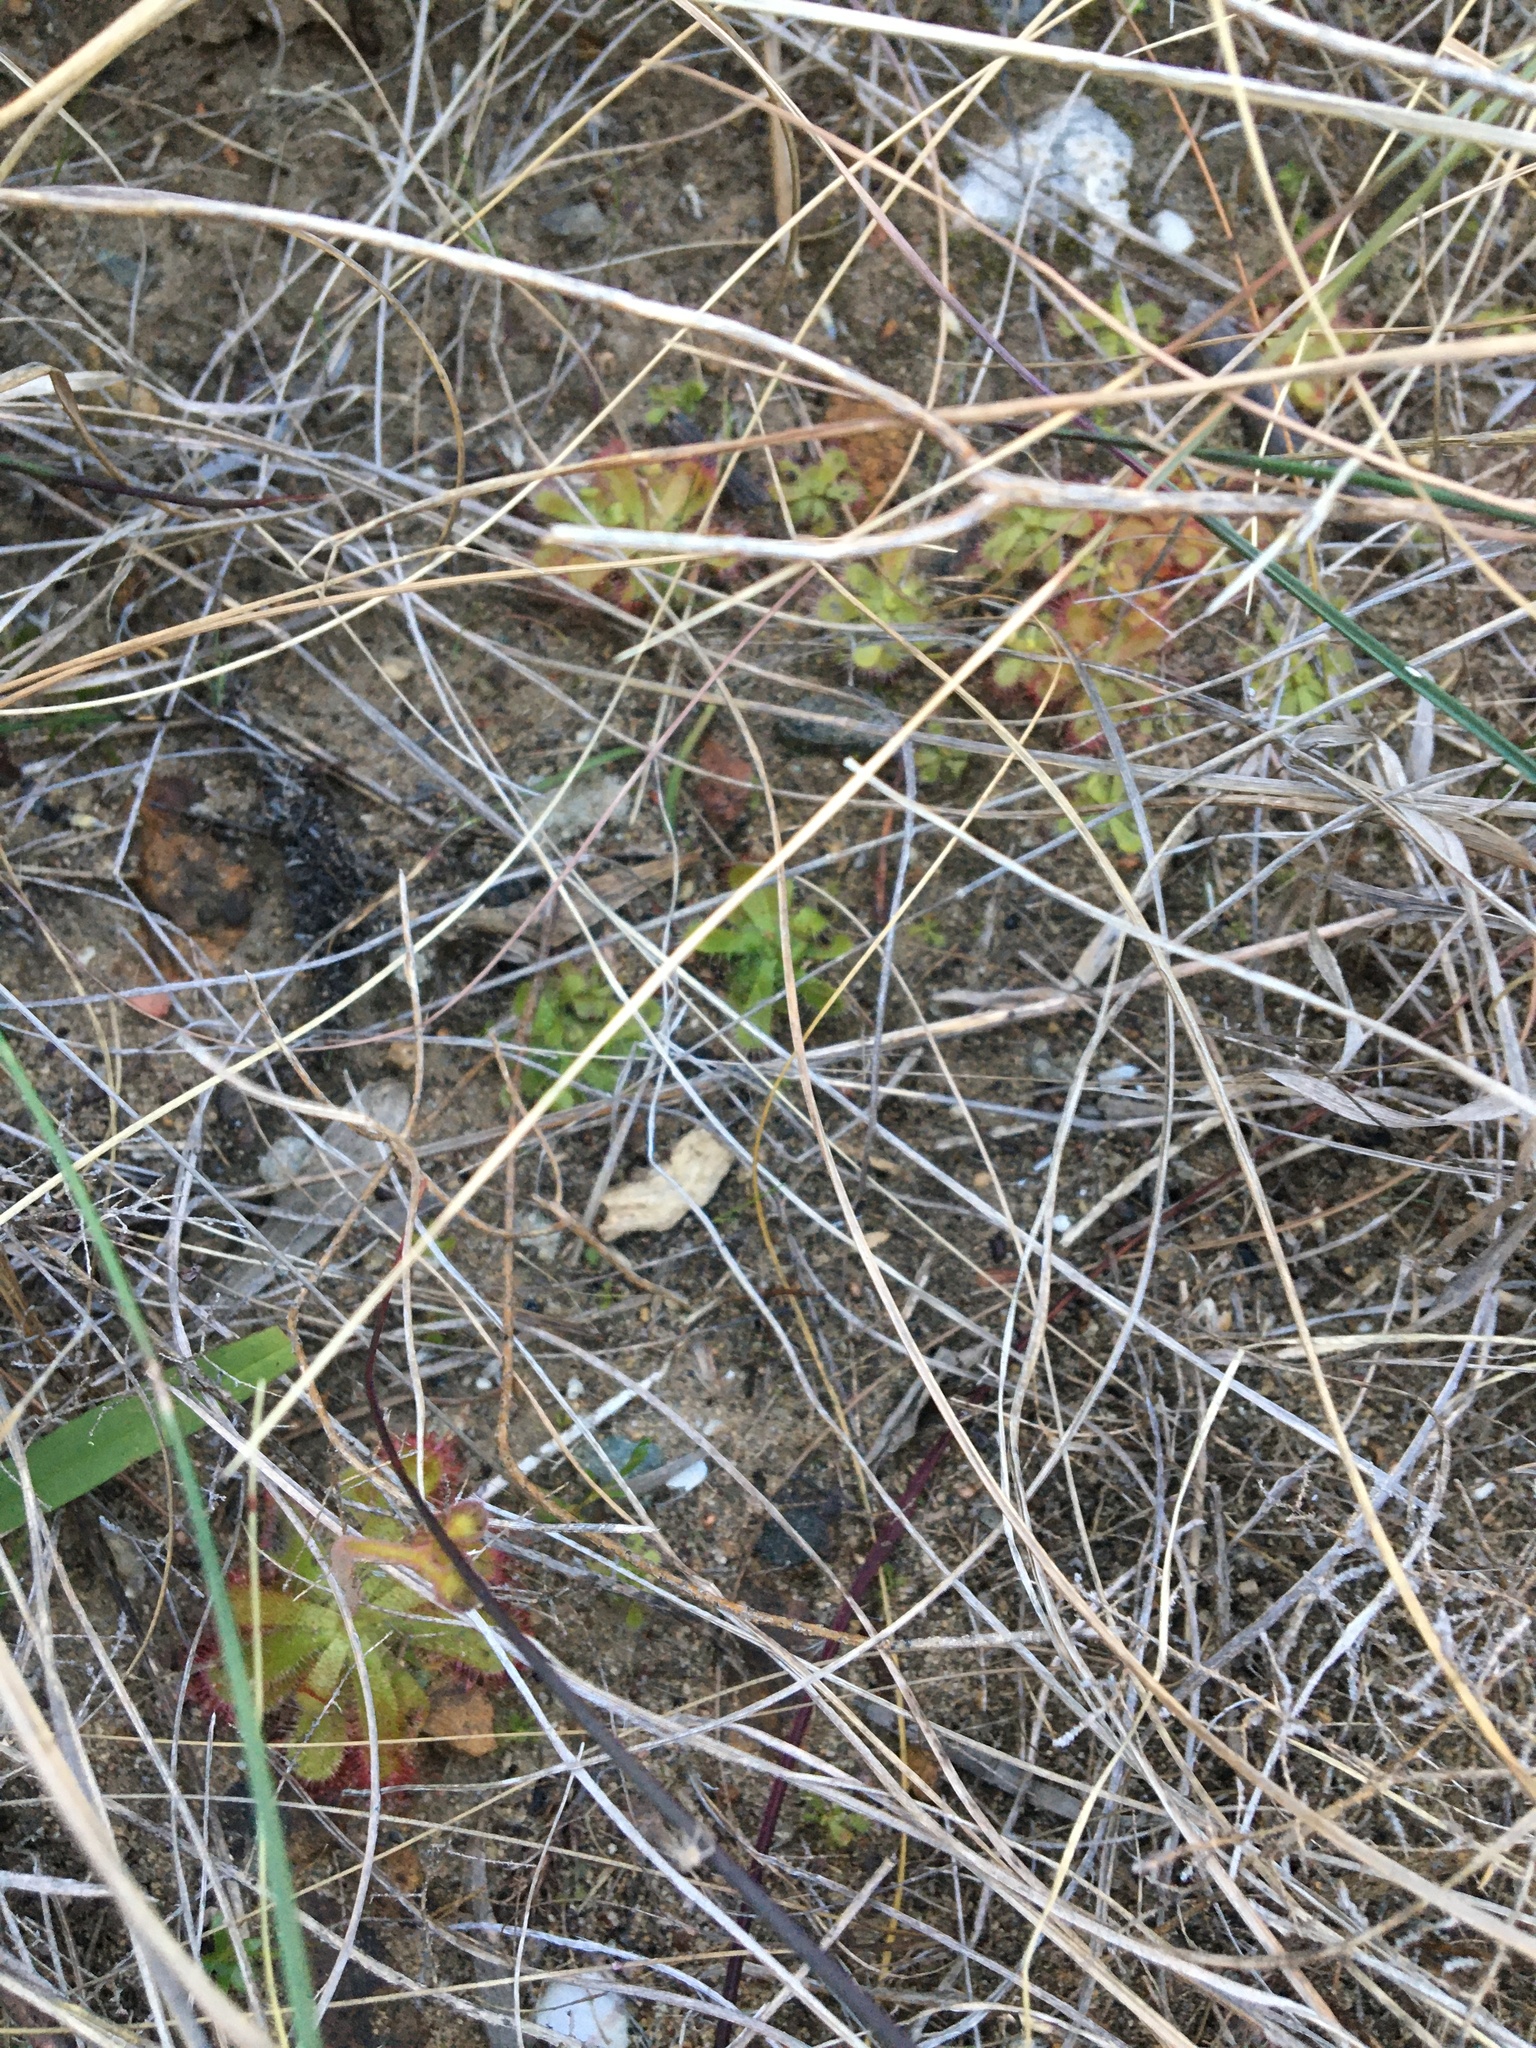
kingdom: Plantae
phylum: Tracheophyta
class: Magnoliopsida
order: Caryophyllales
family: Droseraceae
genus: Drosera
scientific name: Drosera trinervia
